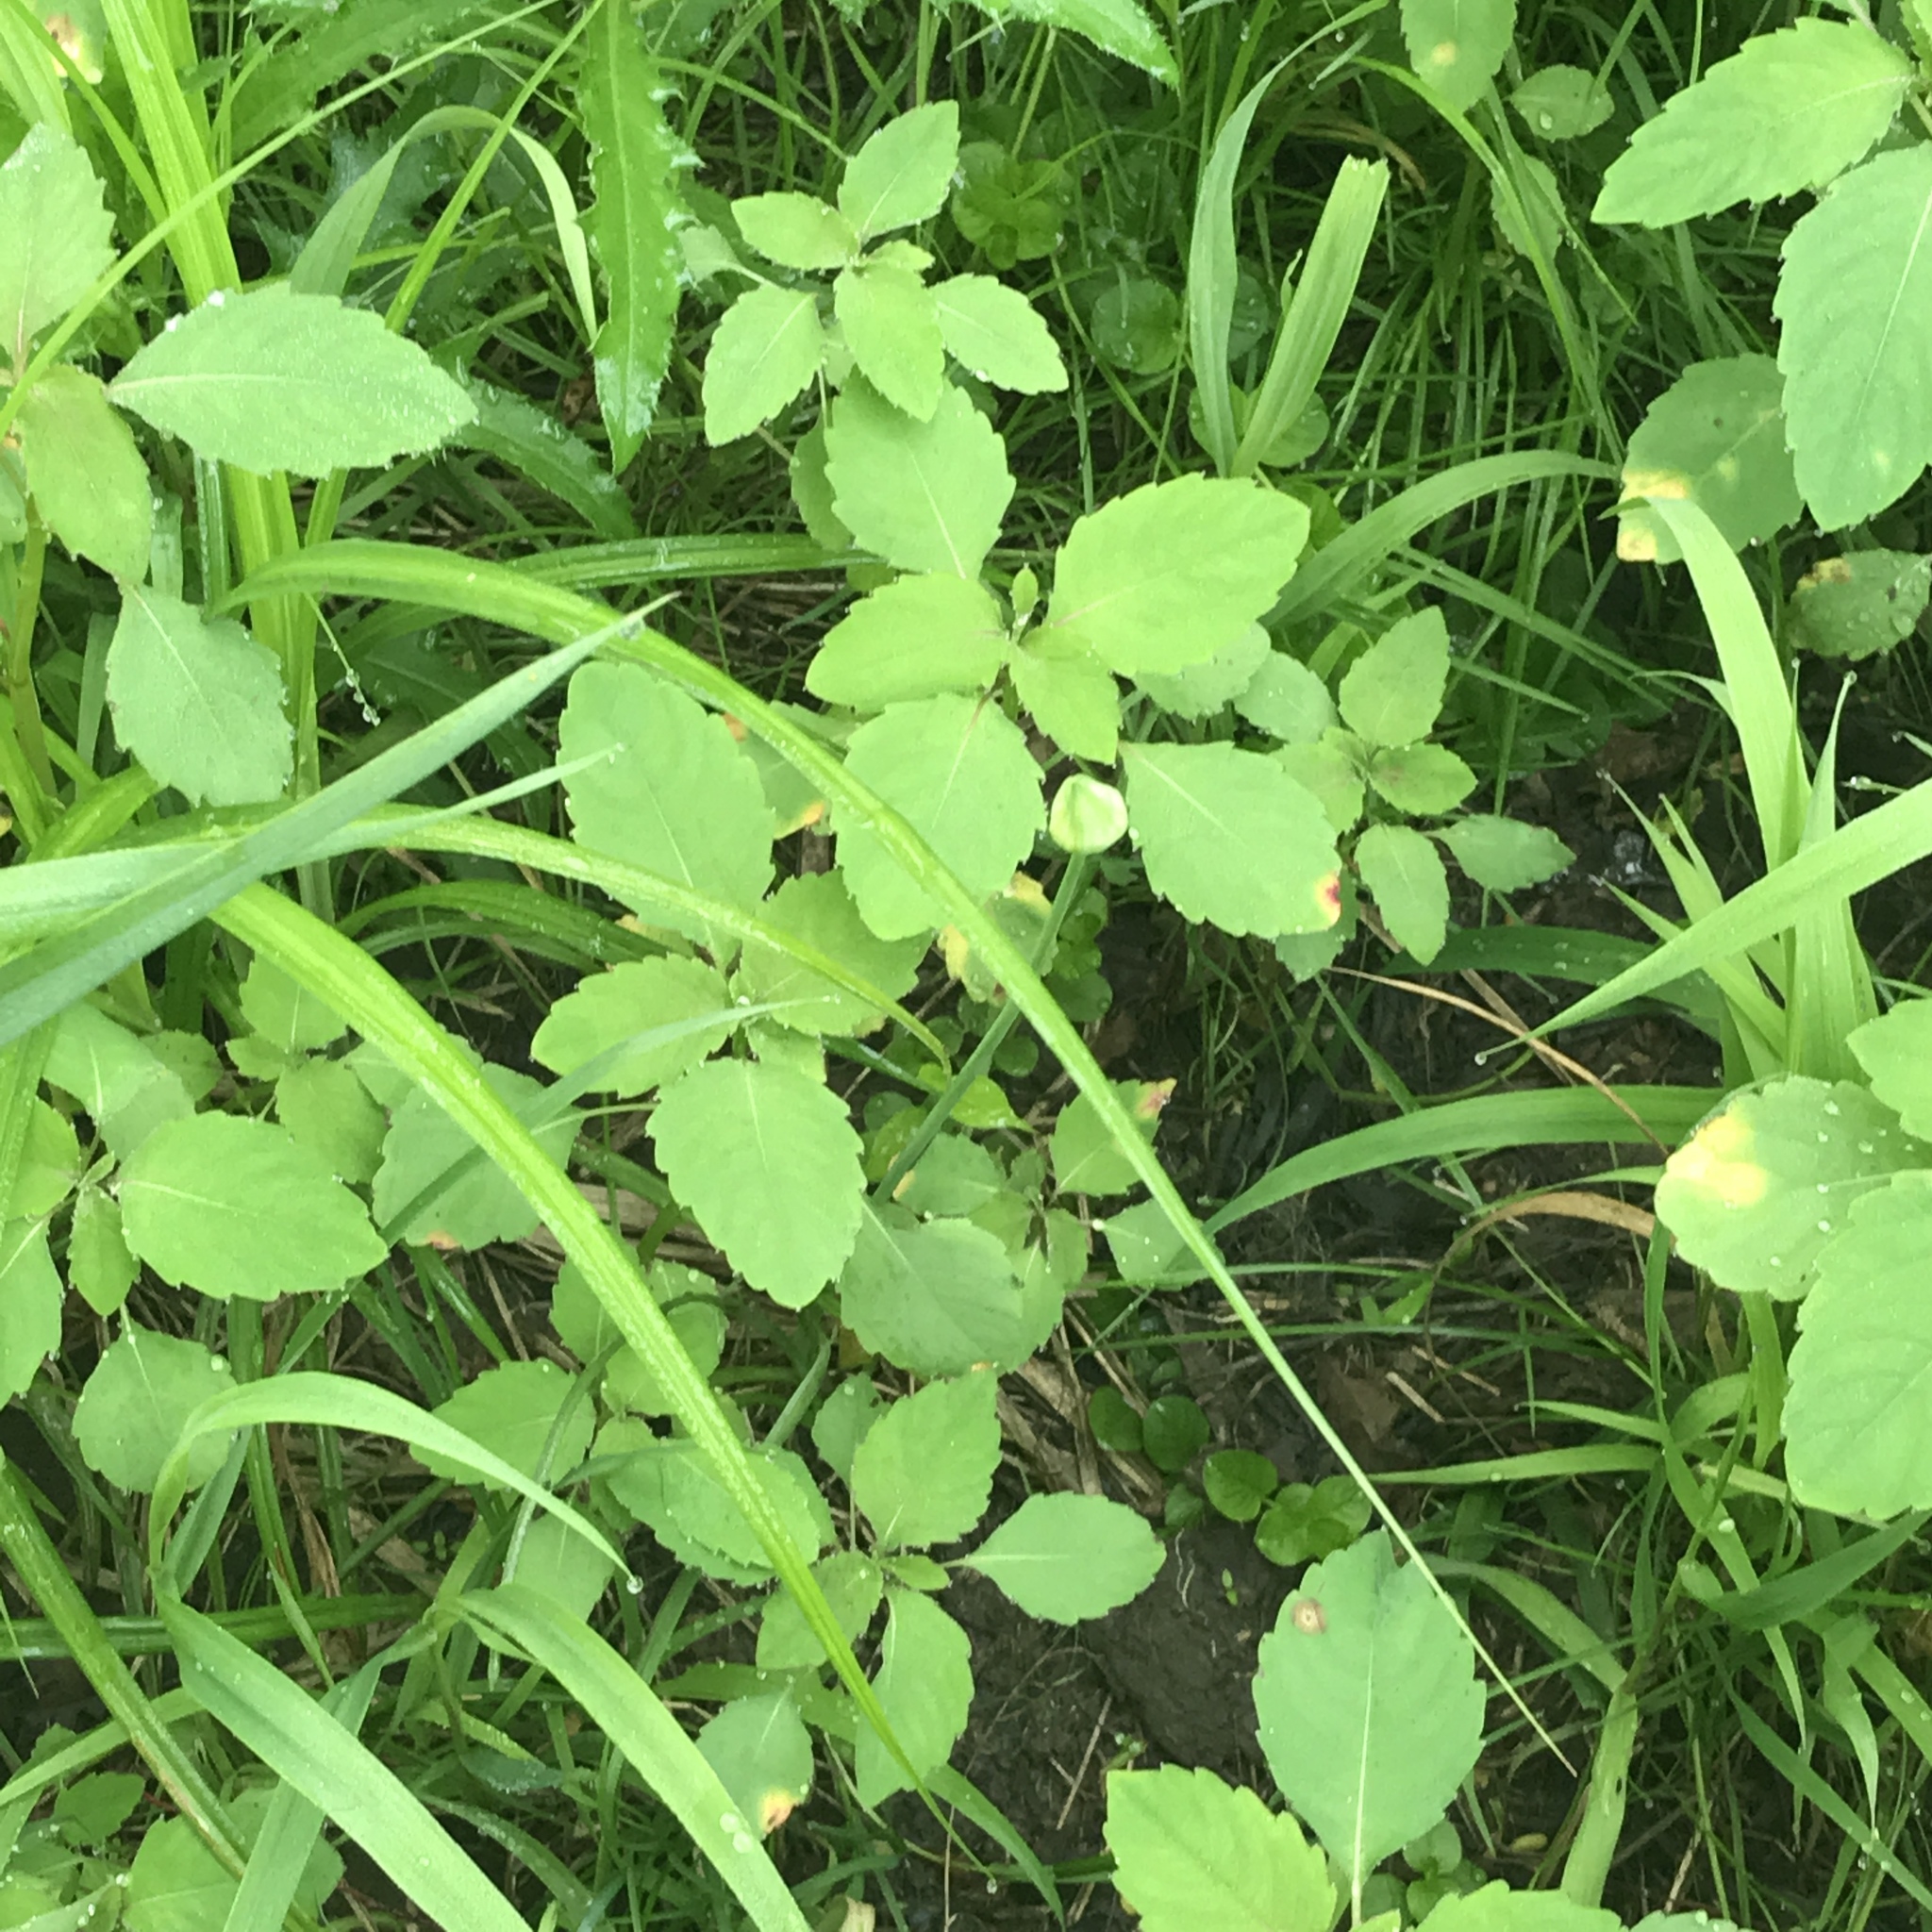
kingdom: Plantae
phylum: Tracheophyta
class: Liliopsida
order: Asparagales
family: Amaryllidaceae
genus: Allium
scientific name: Allium canadense
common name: Meadow garlic
